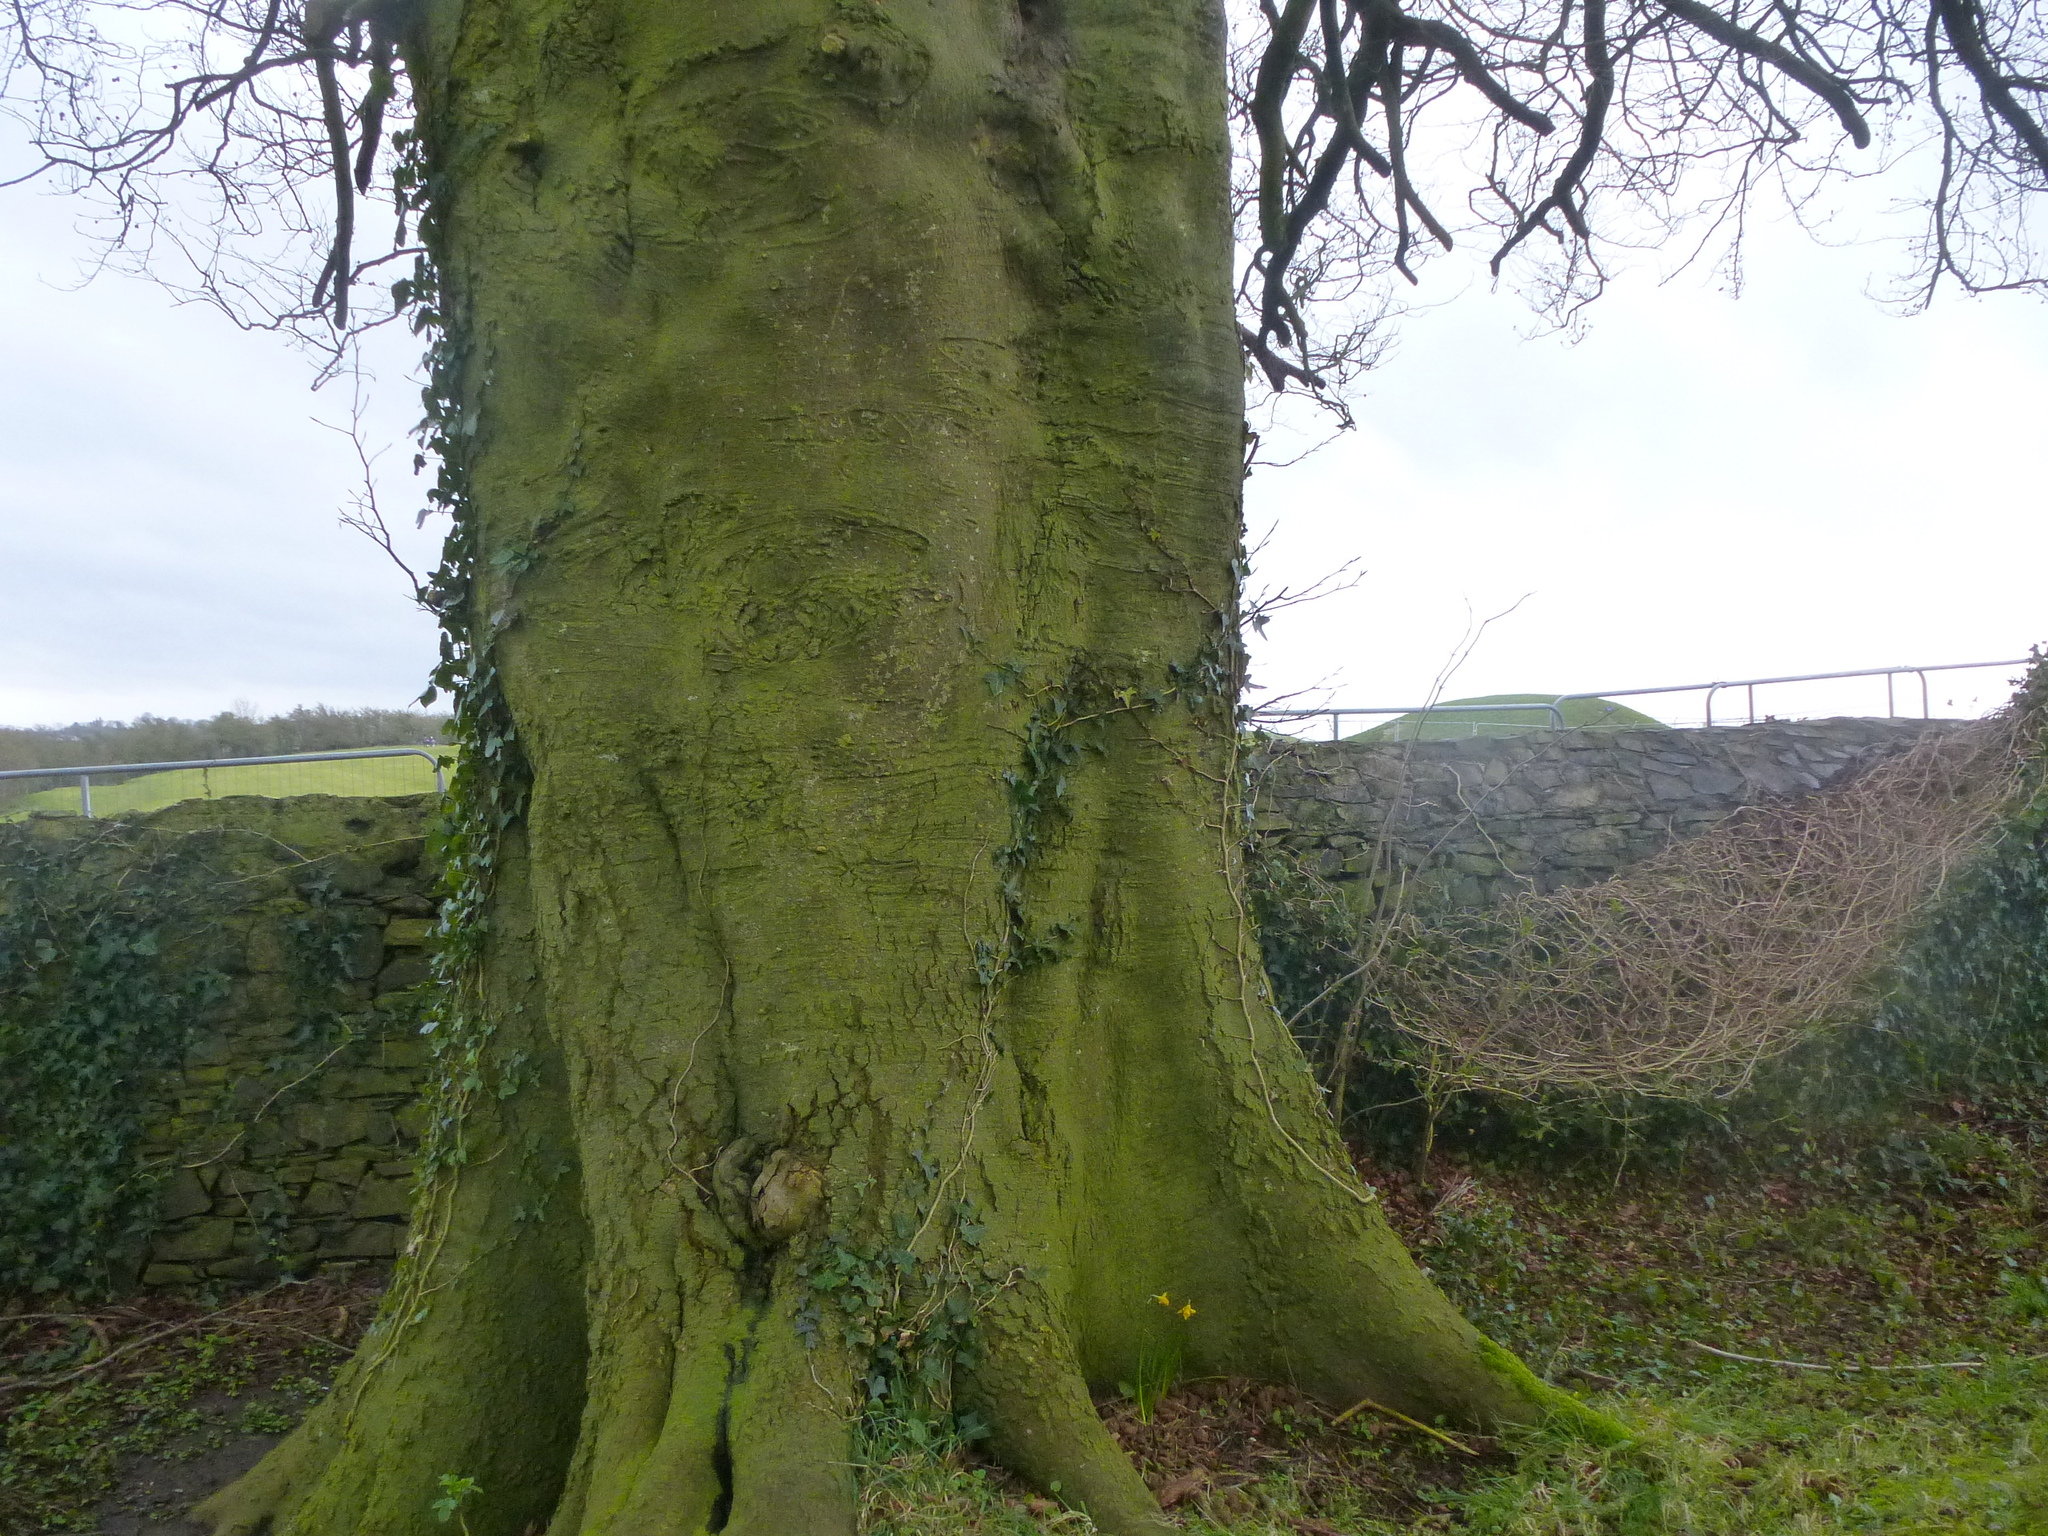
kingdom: Plantae
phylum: Tracheophyta
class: Magnoliopsida
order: Fagales
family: Fagaceae
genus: Fagus
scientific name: Fagus sylvatica
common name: Beech
